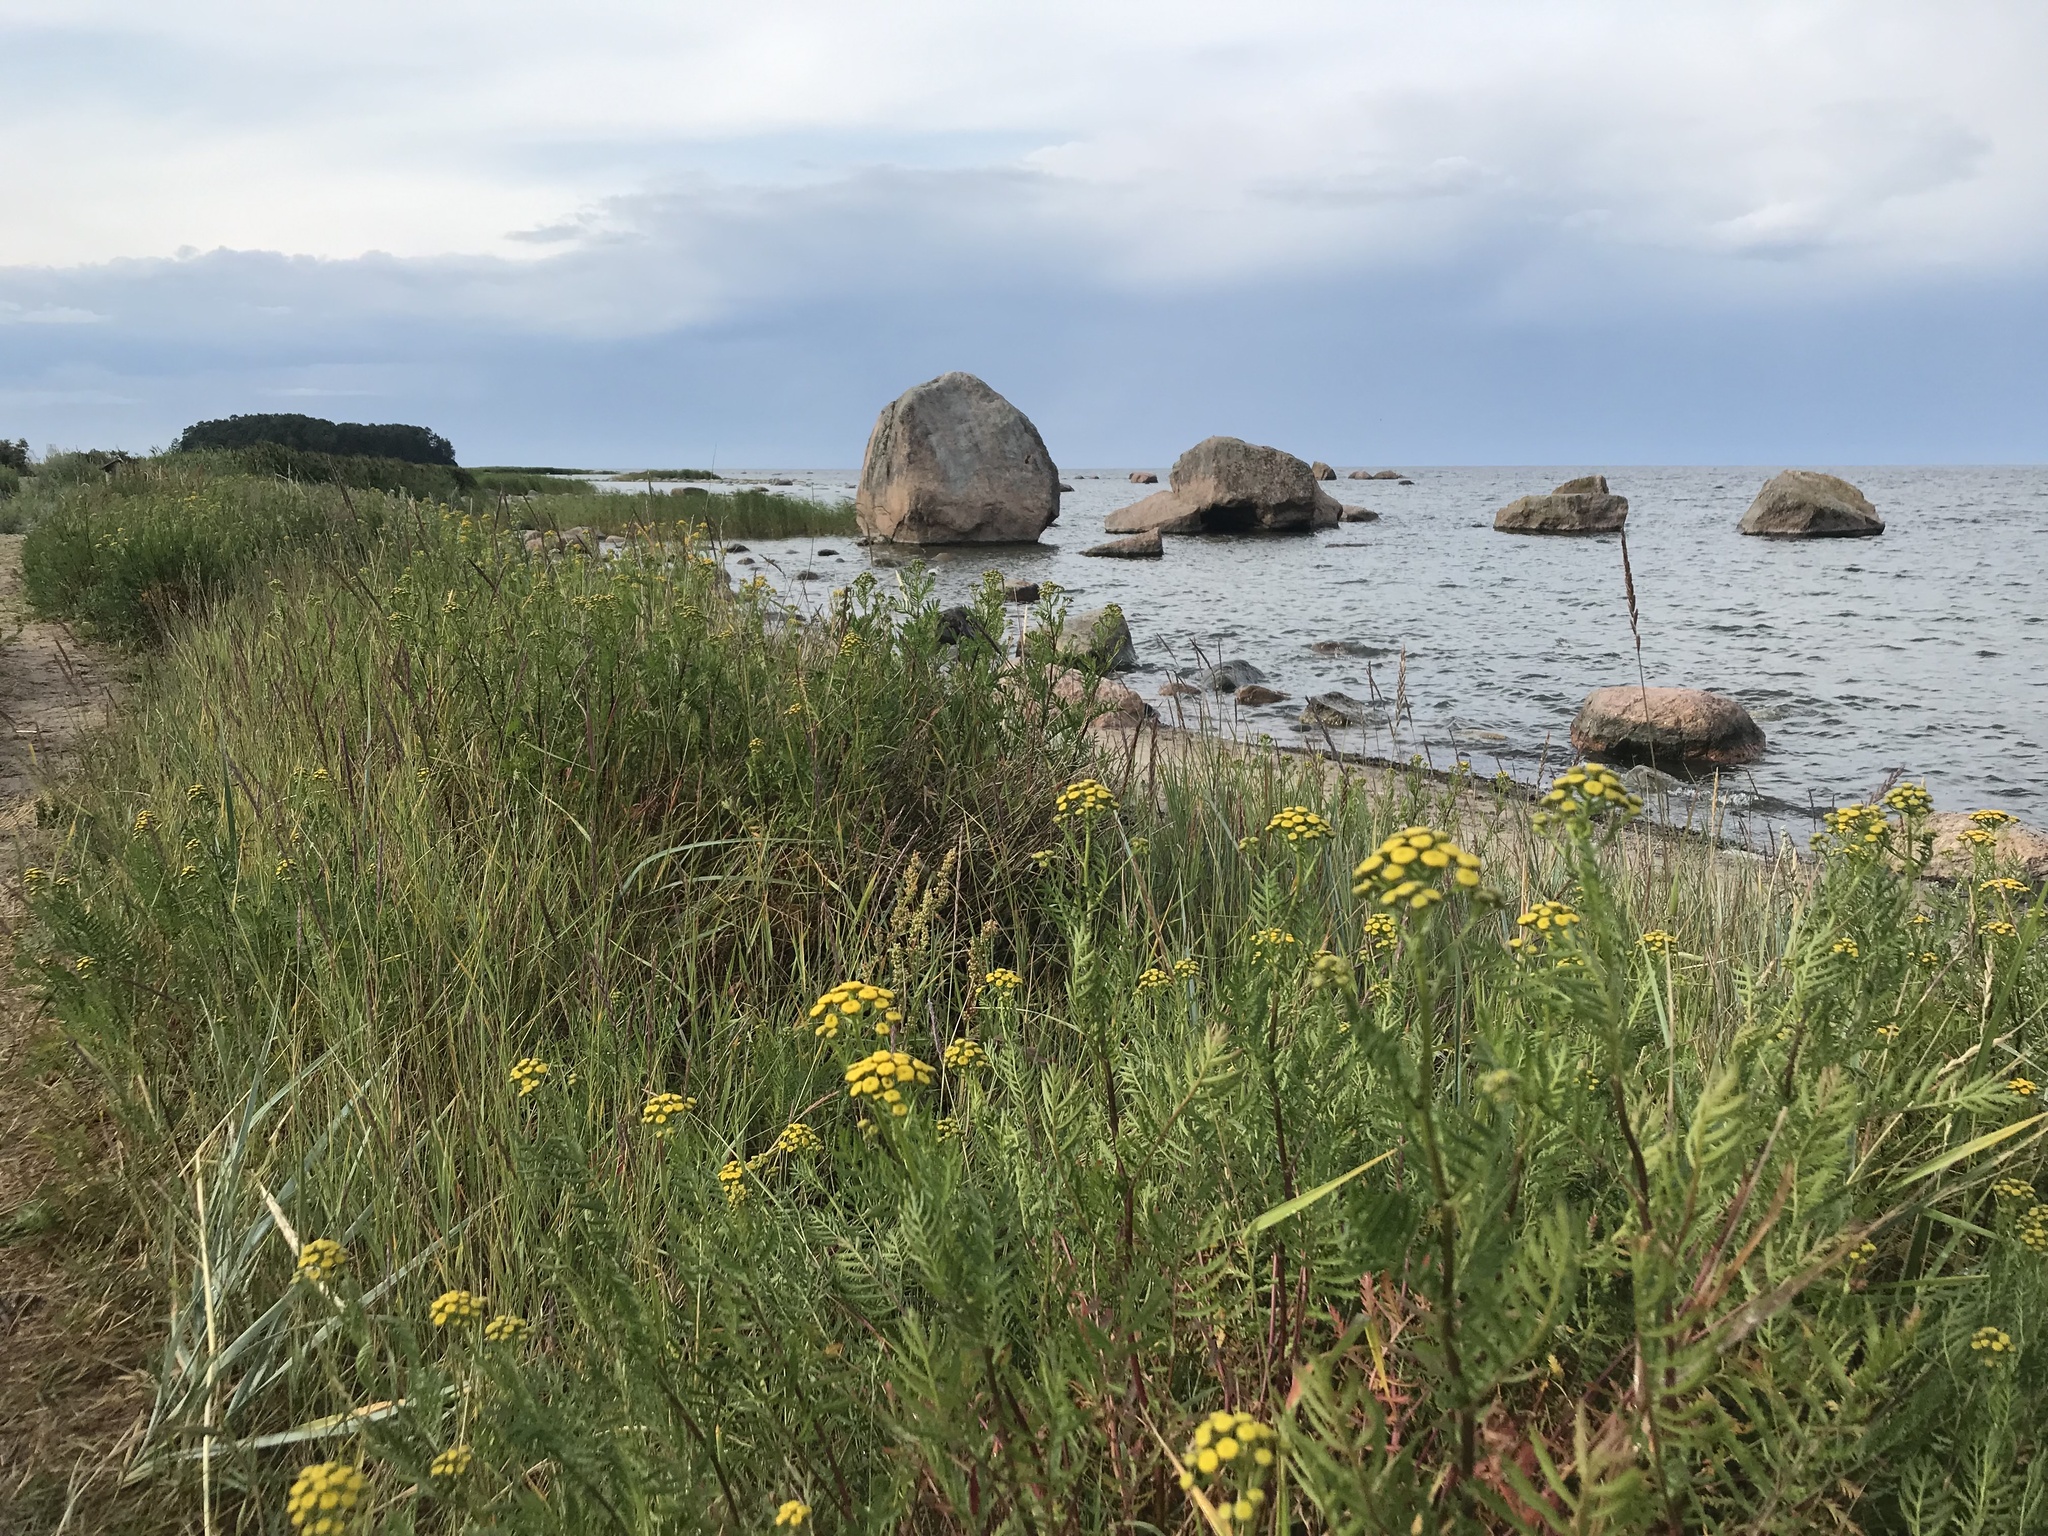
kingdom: Plantae
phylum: Tracheophyta
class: Magnoliopsida
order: Asterales
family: Asteraceae
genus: Tanacetum
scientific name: Tanacetum vulgare
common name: Common tansy
